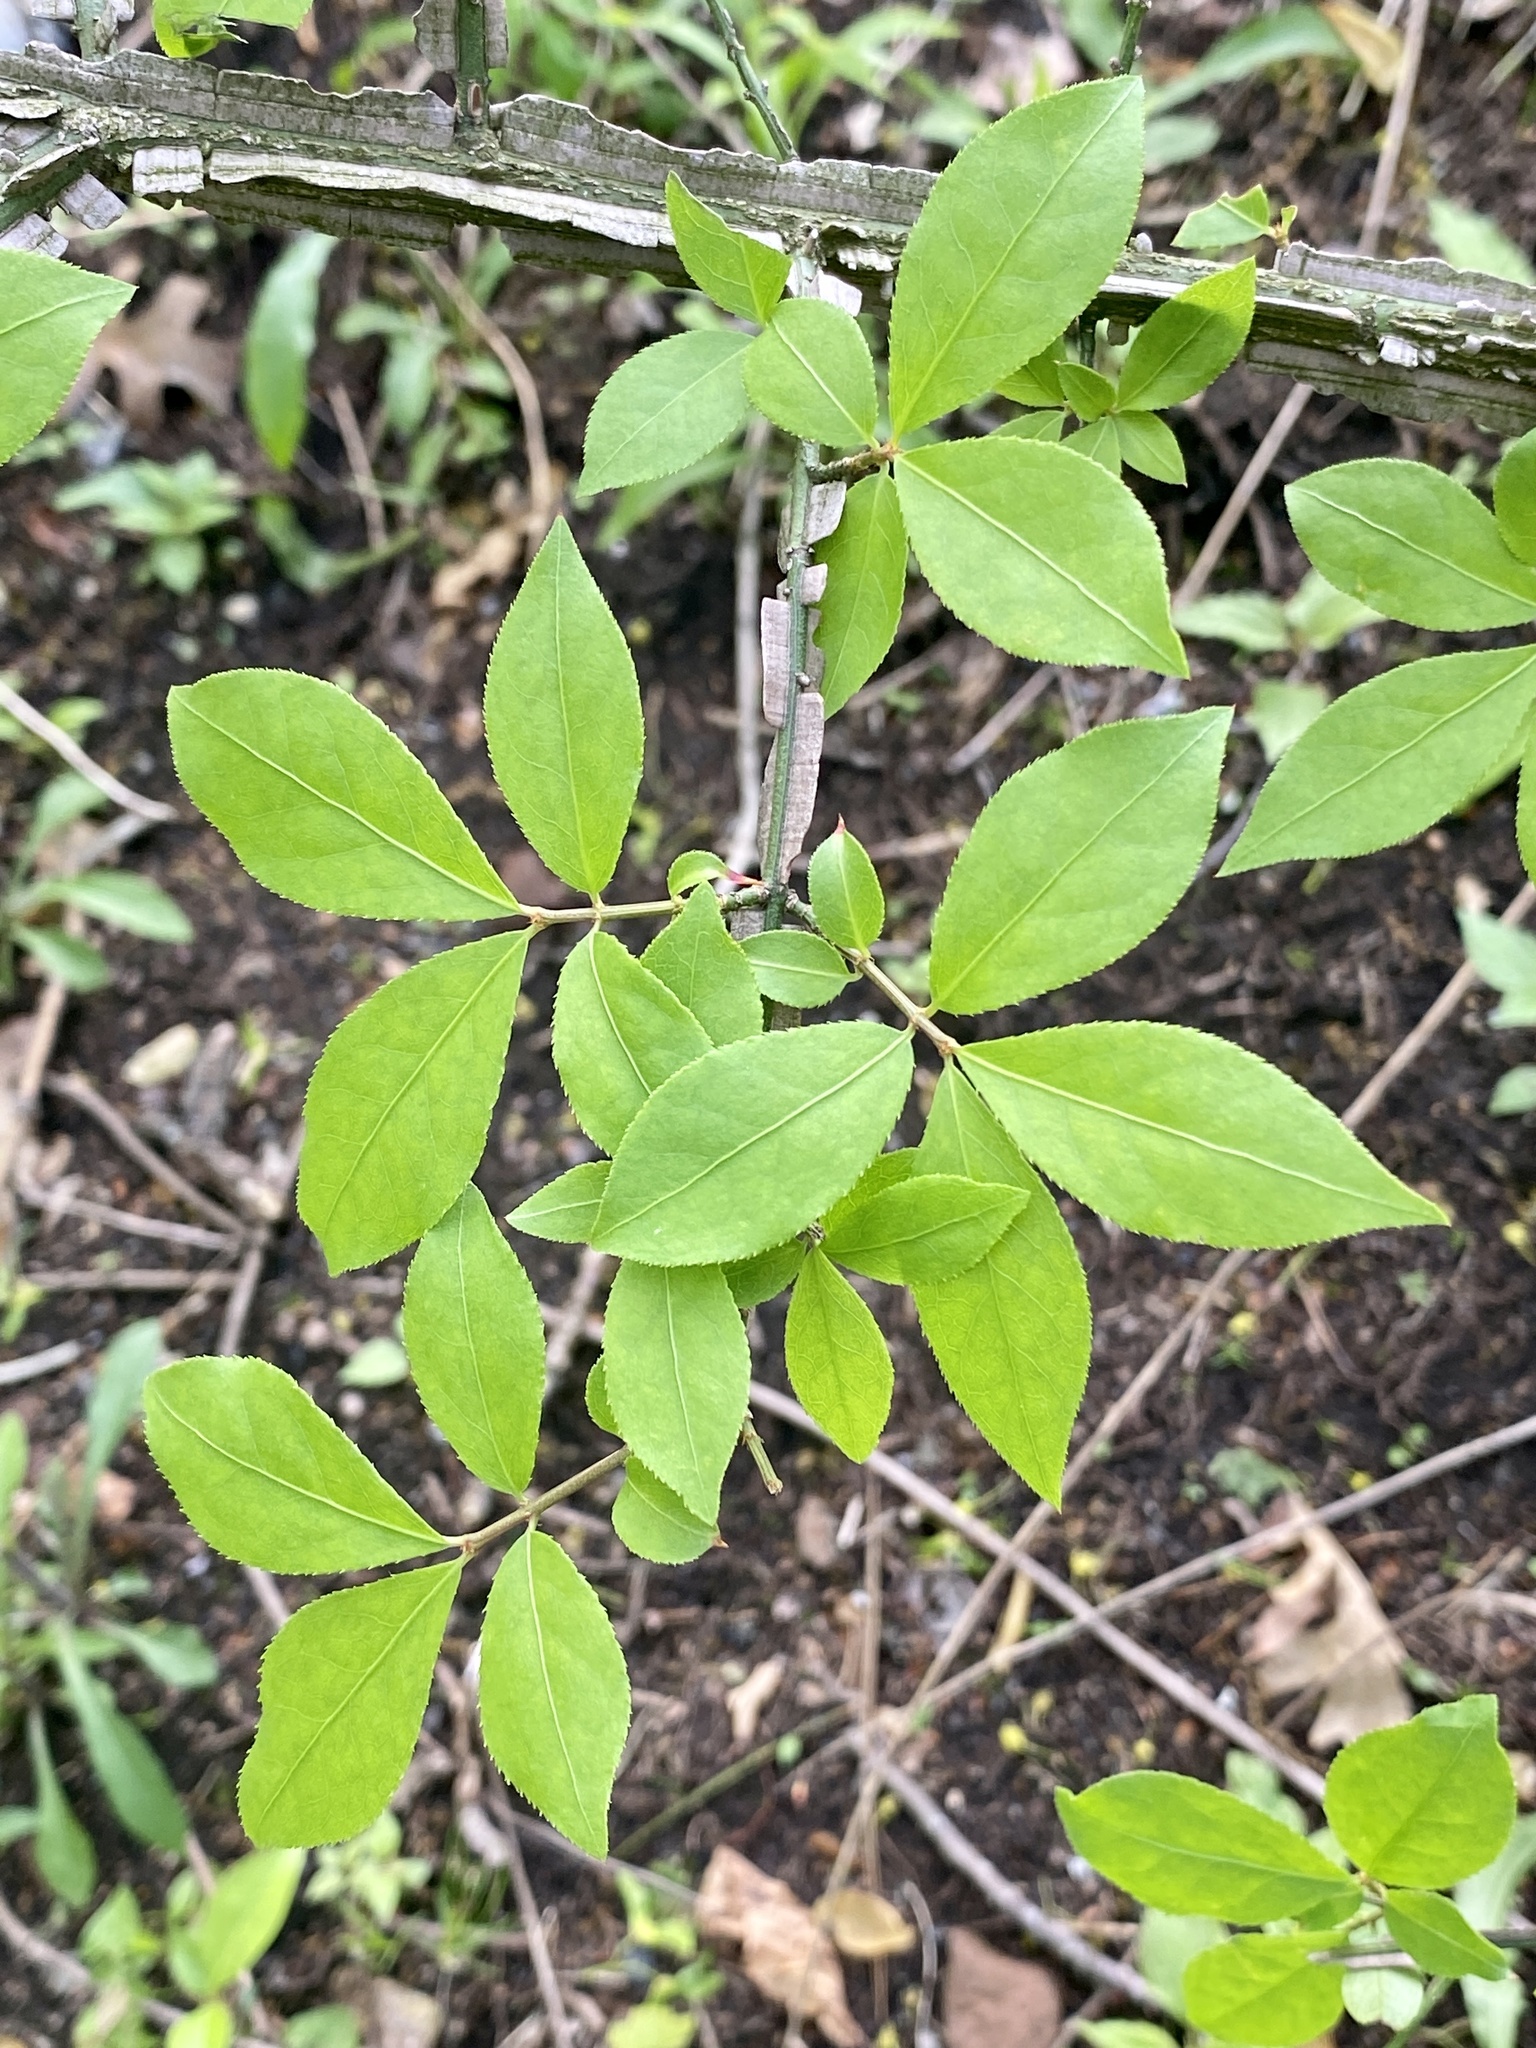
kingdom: Plantae
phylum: Tracheophyta
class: Magnoliopsida
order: Celastrales
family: Celastraceae
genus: Euonymus
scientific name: Euonymus alatus
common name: Winged euonymus
